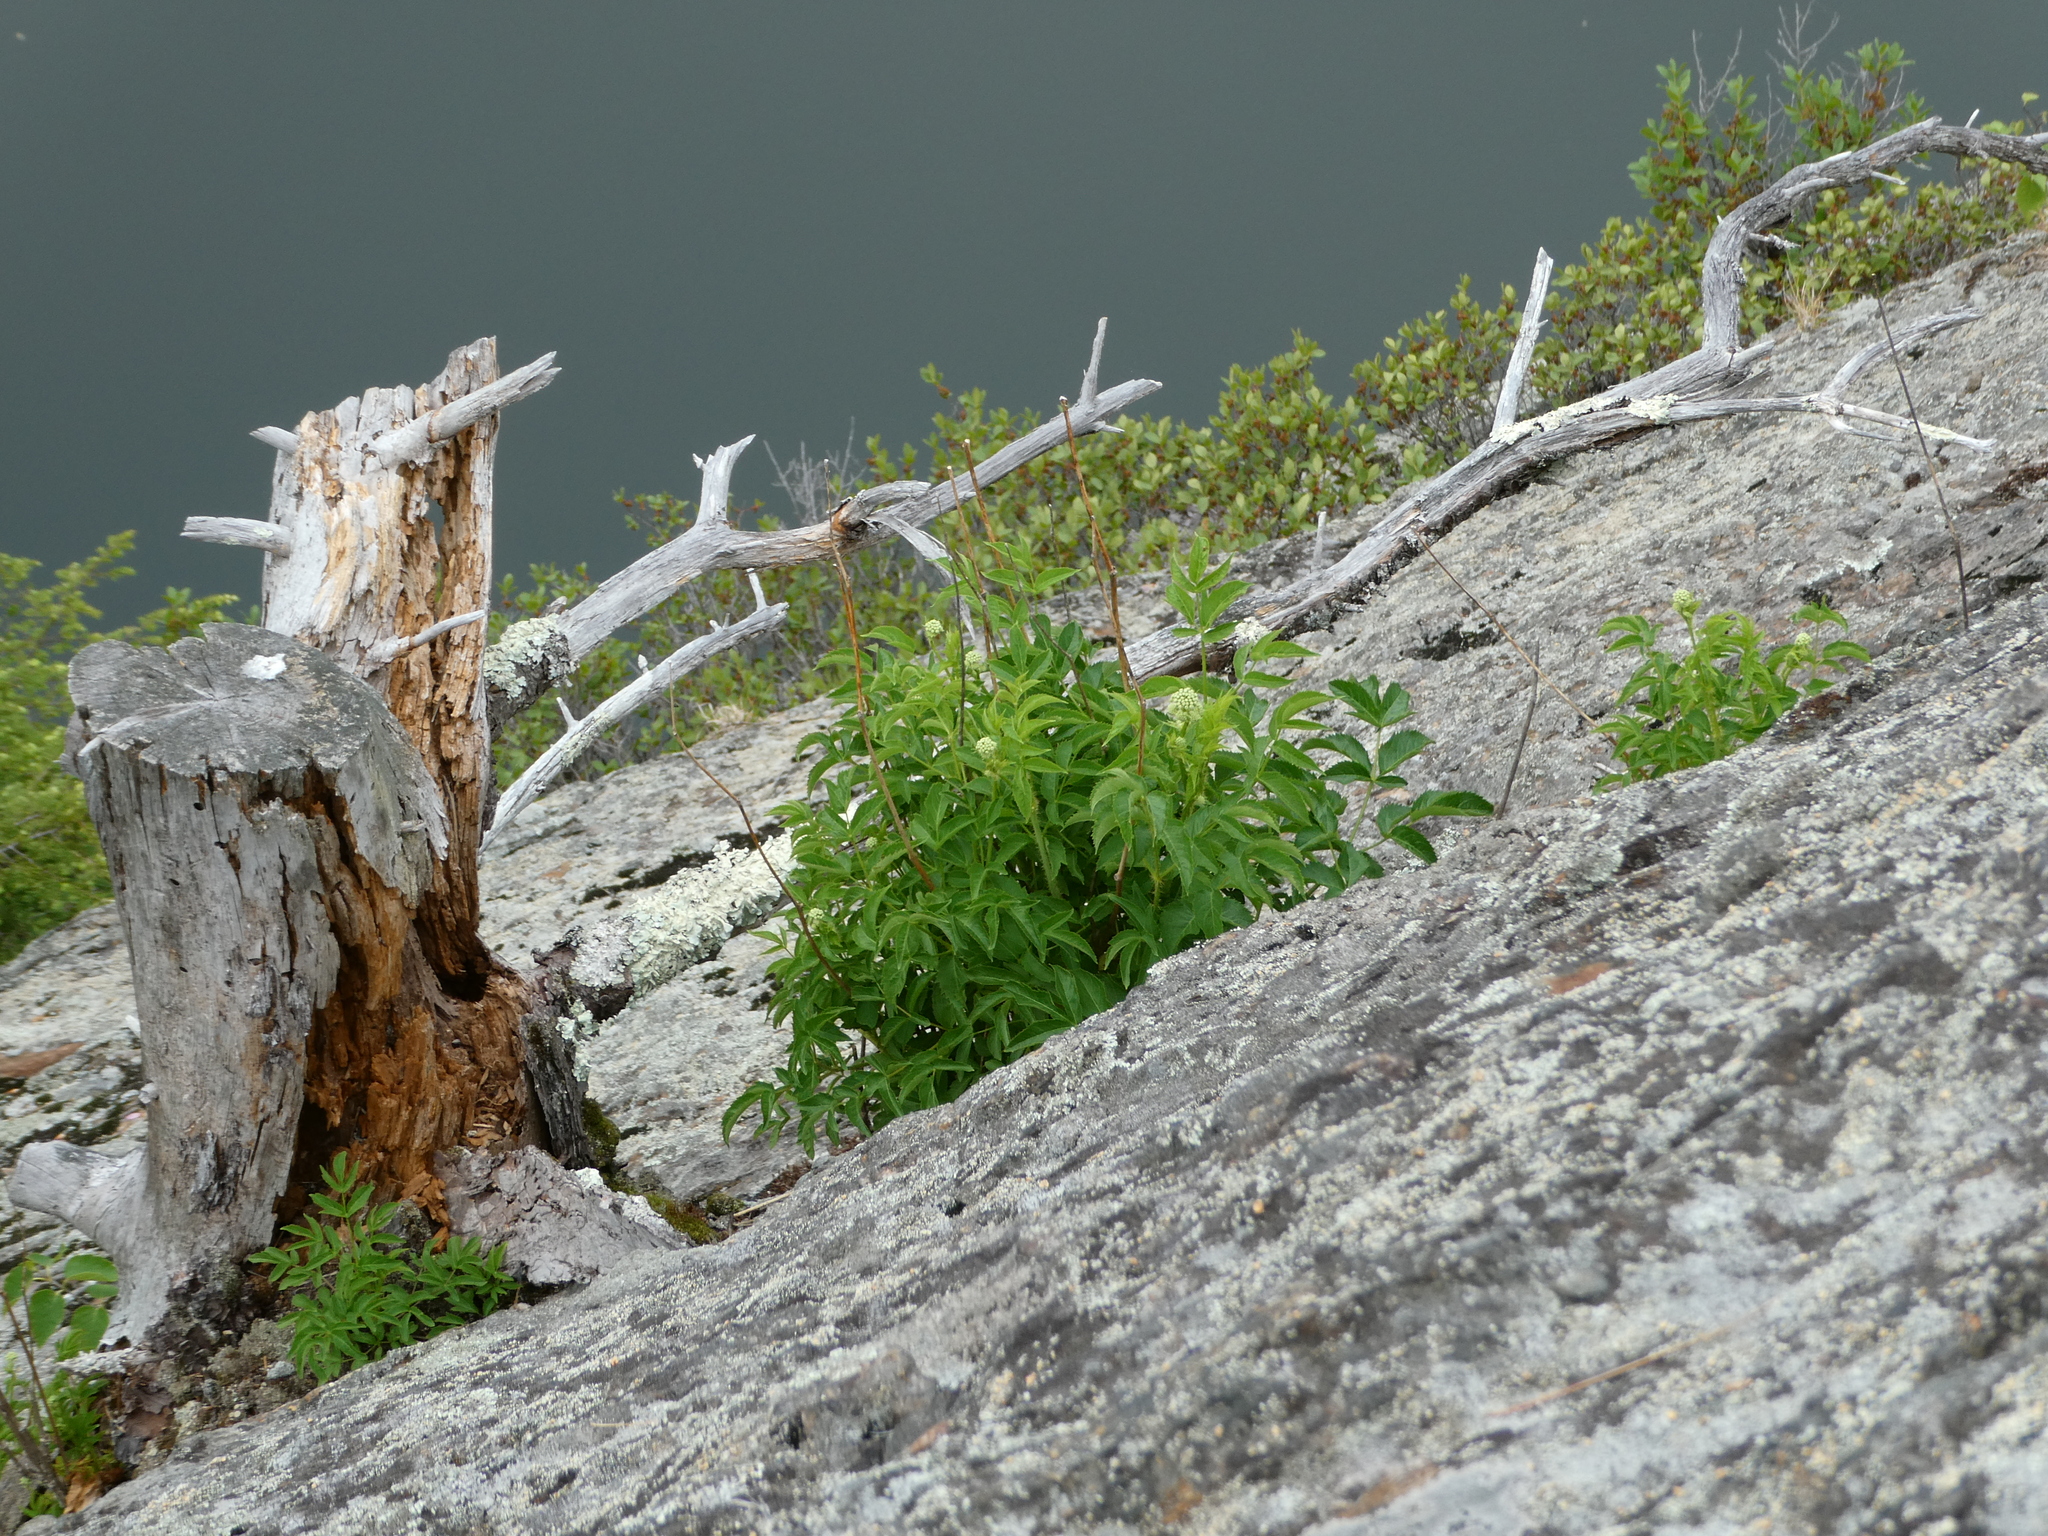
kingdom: Plantae
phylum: Tracheophyta
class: Magnoliopsida
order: Apiales
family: Araliaceae
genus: Aralia
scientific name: Aralia hispida
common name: Bristly sarsaparilla
